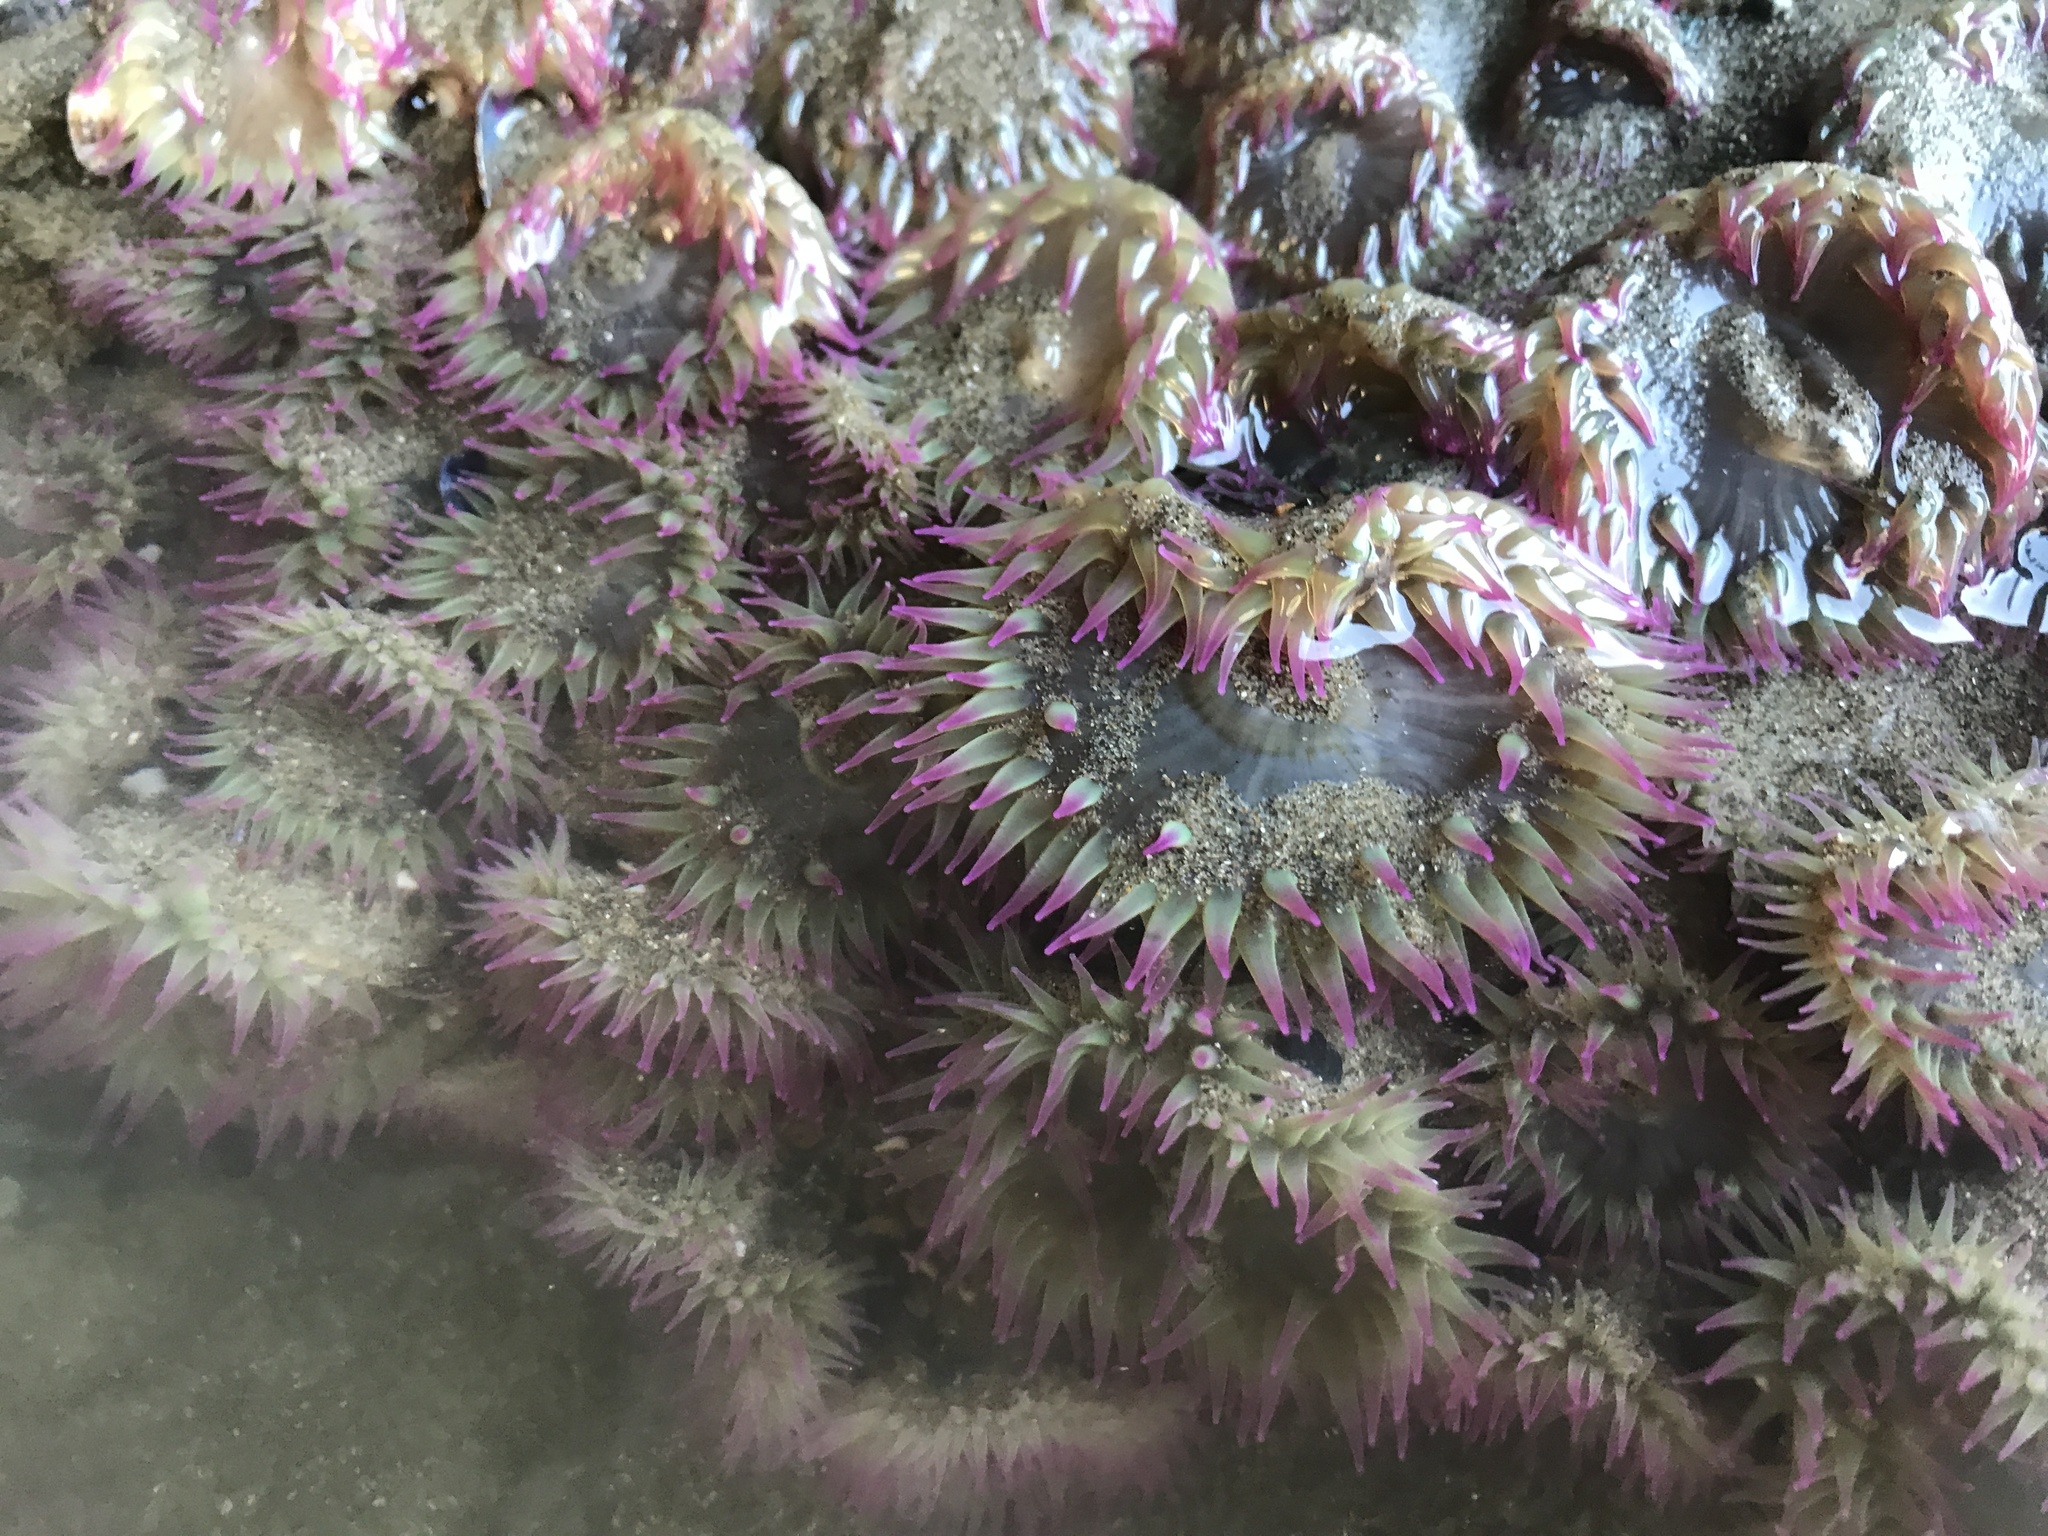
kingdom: Animalia
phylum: Cnidaria
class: Anthozoa
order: Actiniaria
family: Actiniidae
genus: Anthopleura
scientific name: Anthopleura elegantissima
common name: Clonal anemone
